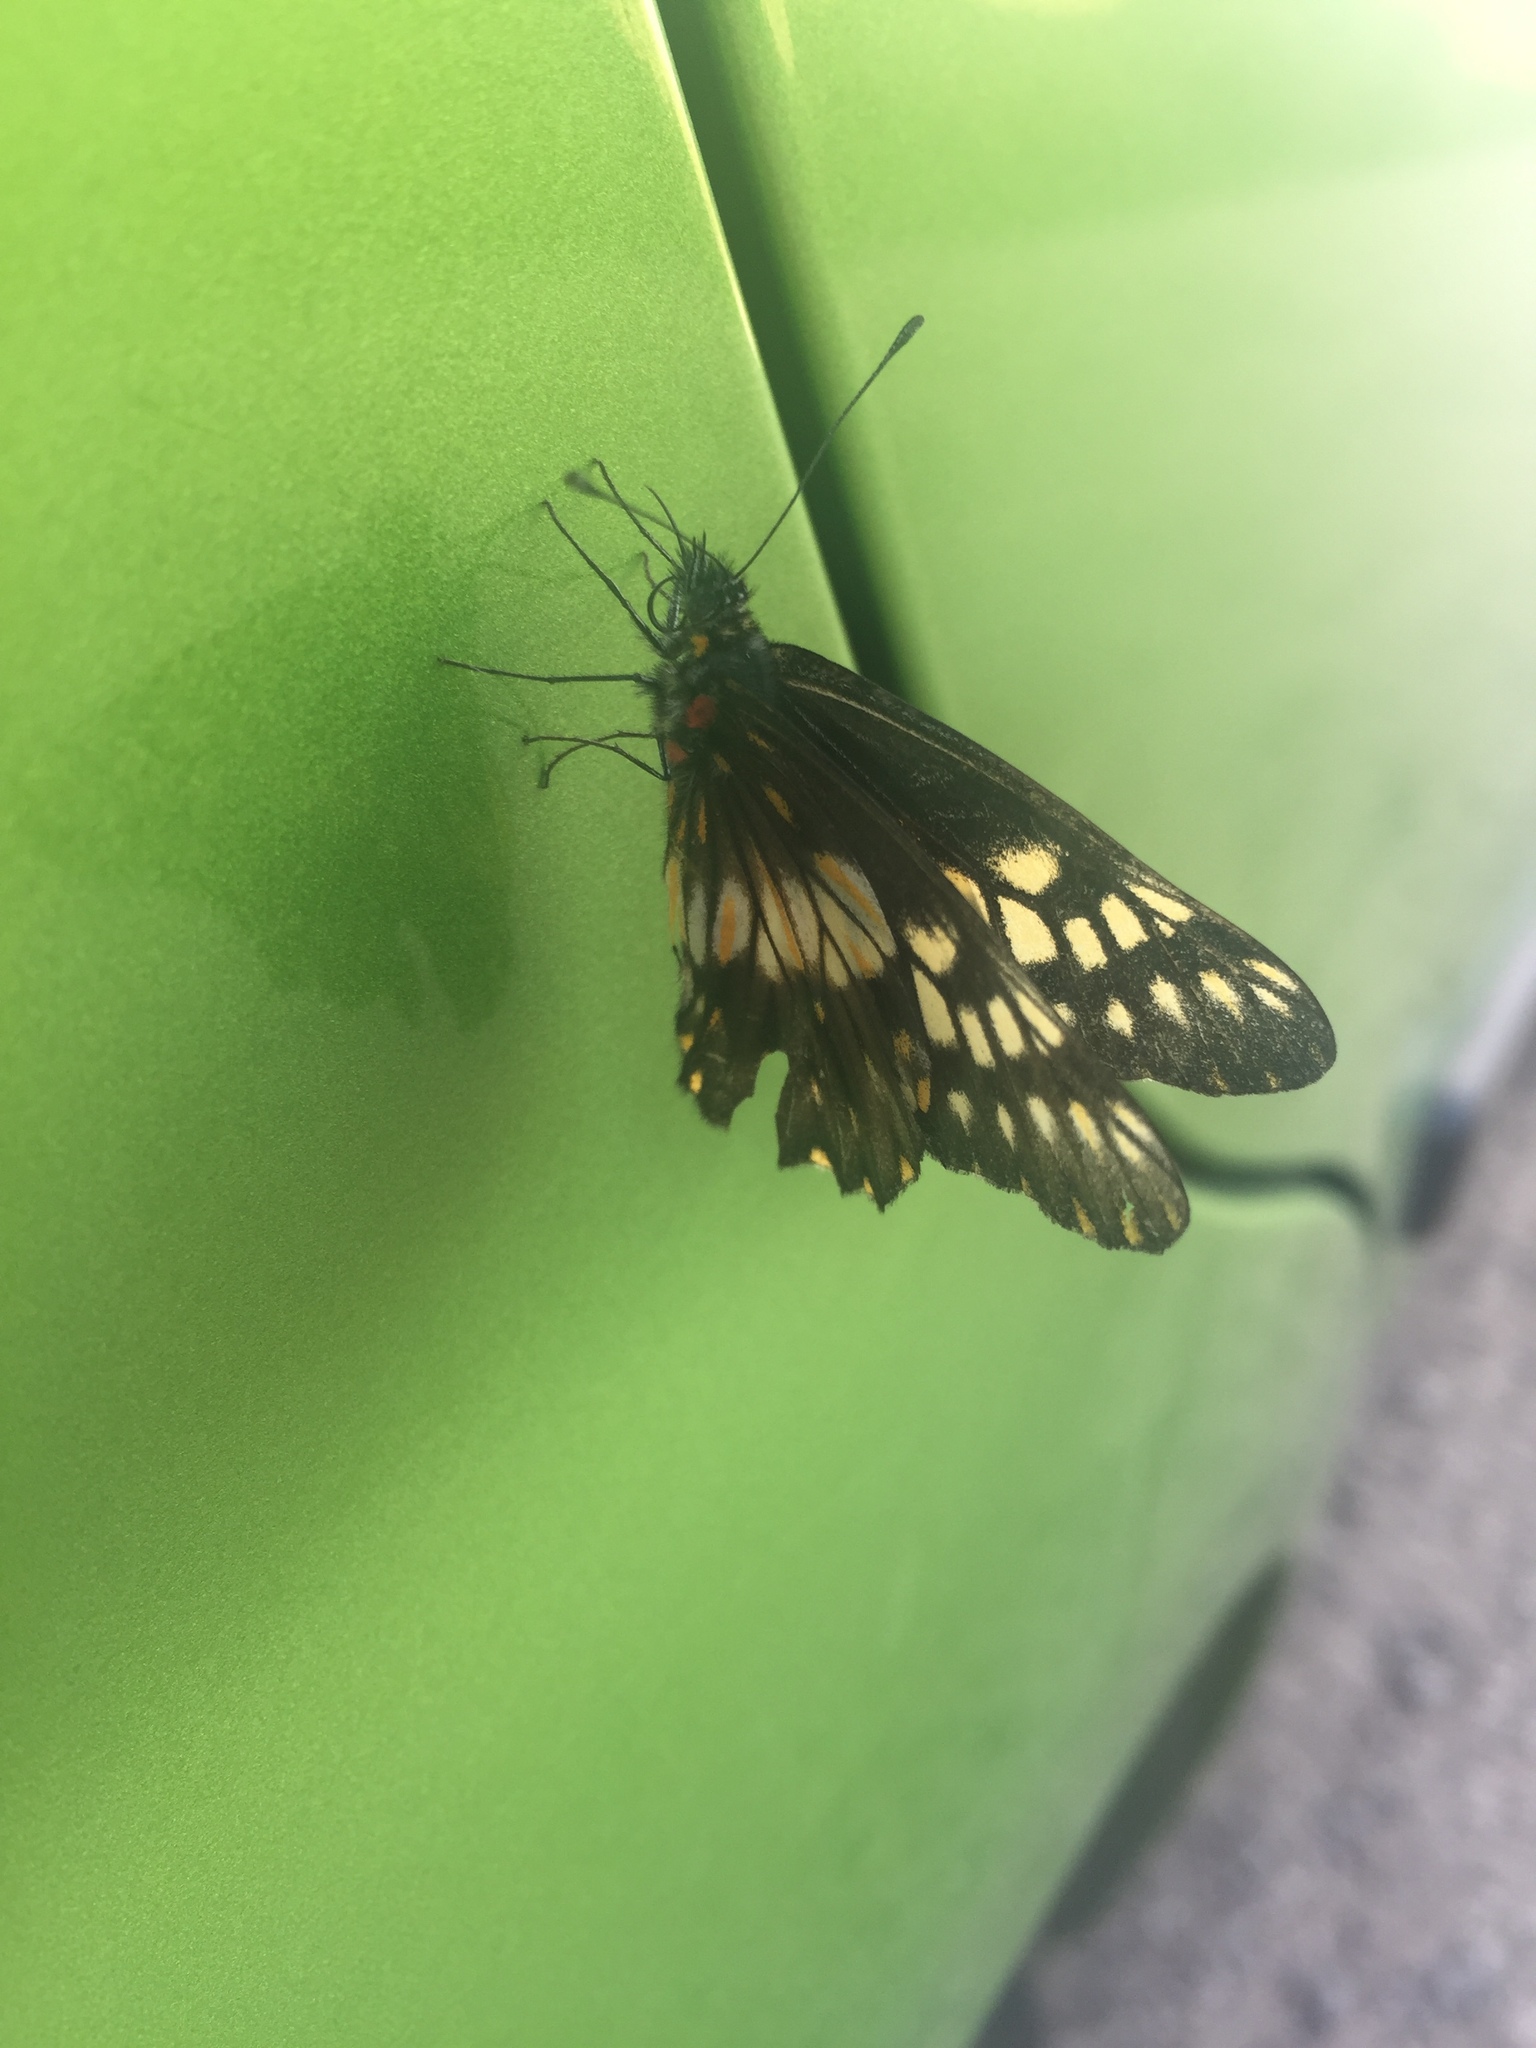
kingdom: Animalia
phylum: Arthropoda
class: Insecta
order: Lepidoptera
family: Pieridae
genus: Archonias
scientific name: Archonias nimbice
